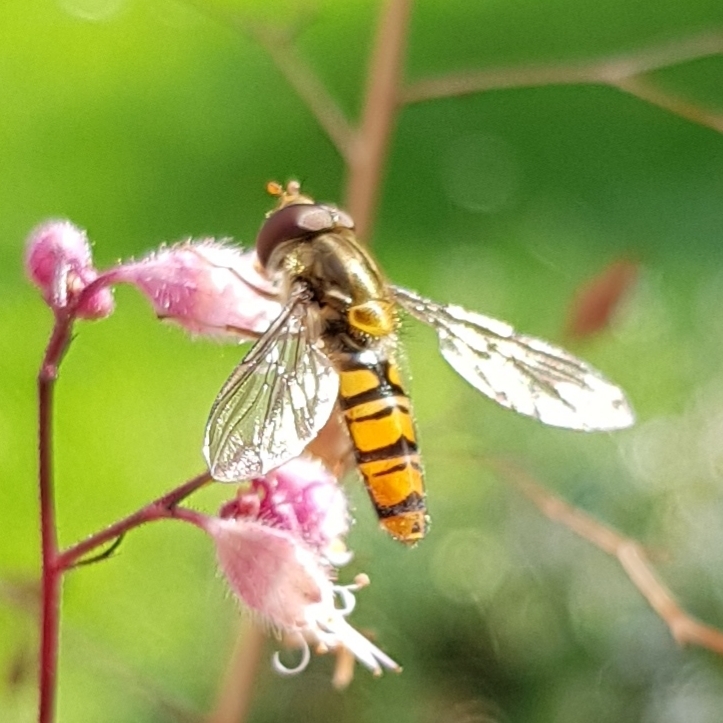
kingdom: Animalia
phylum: Arthropoda
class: Insecta
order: Diptera
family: Syrphidae
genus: Episyrphus
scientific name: Episyrphus balteatus
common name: Marmalade hoverfly
